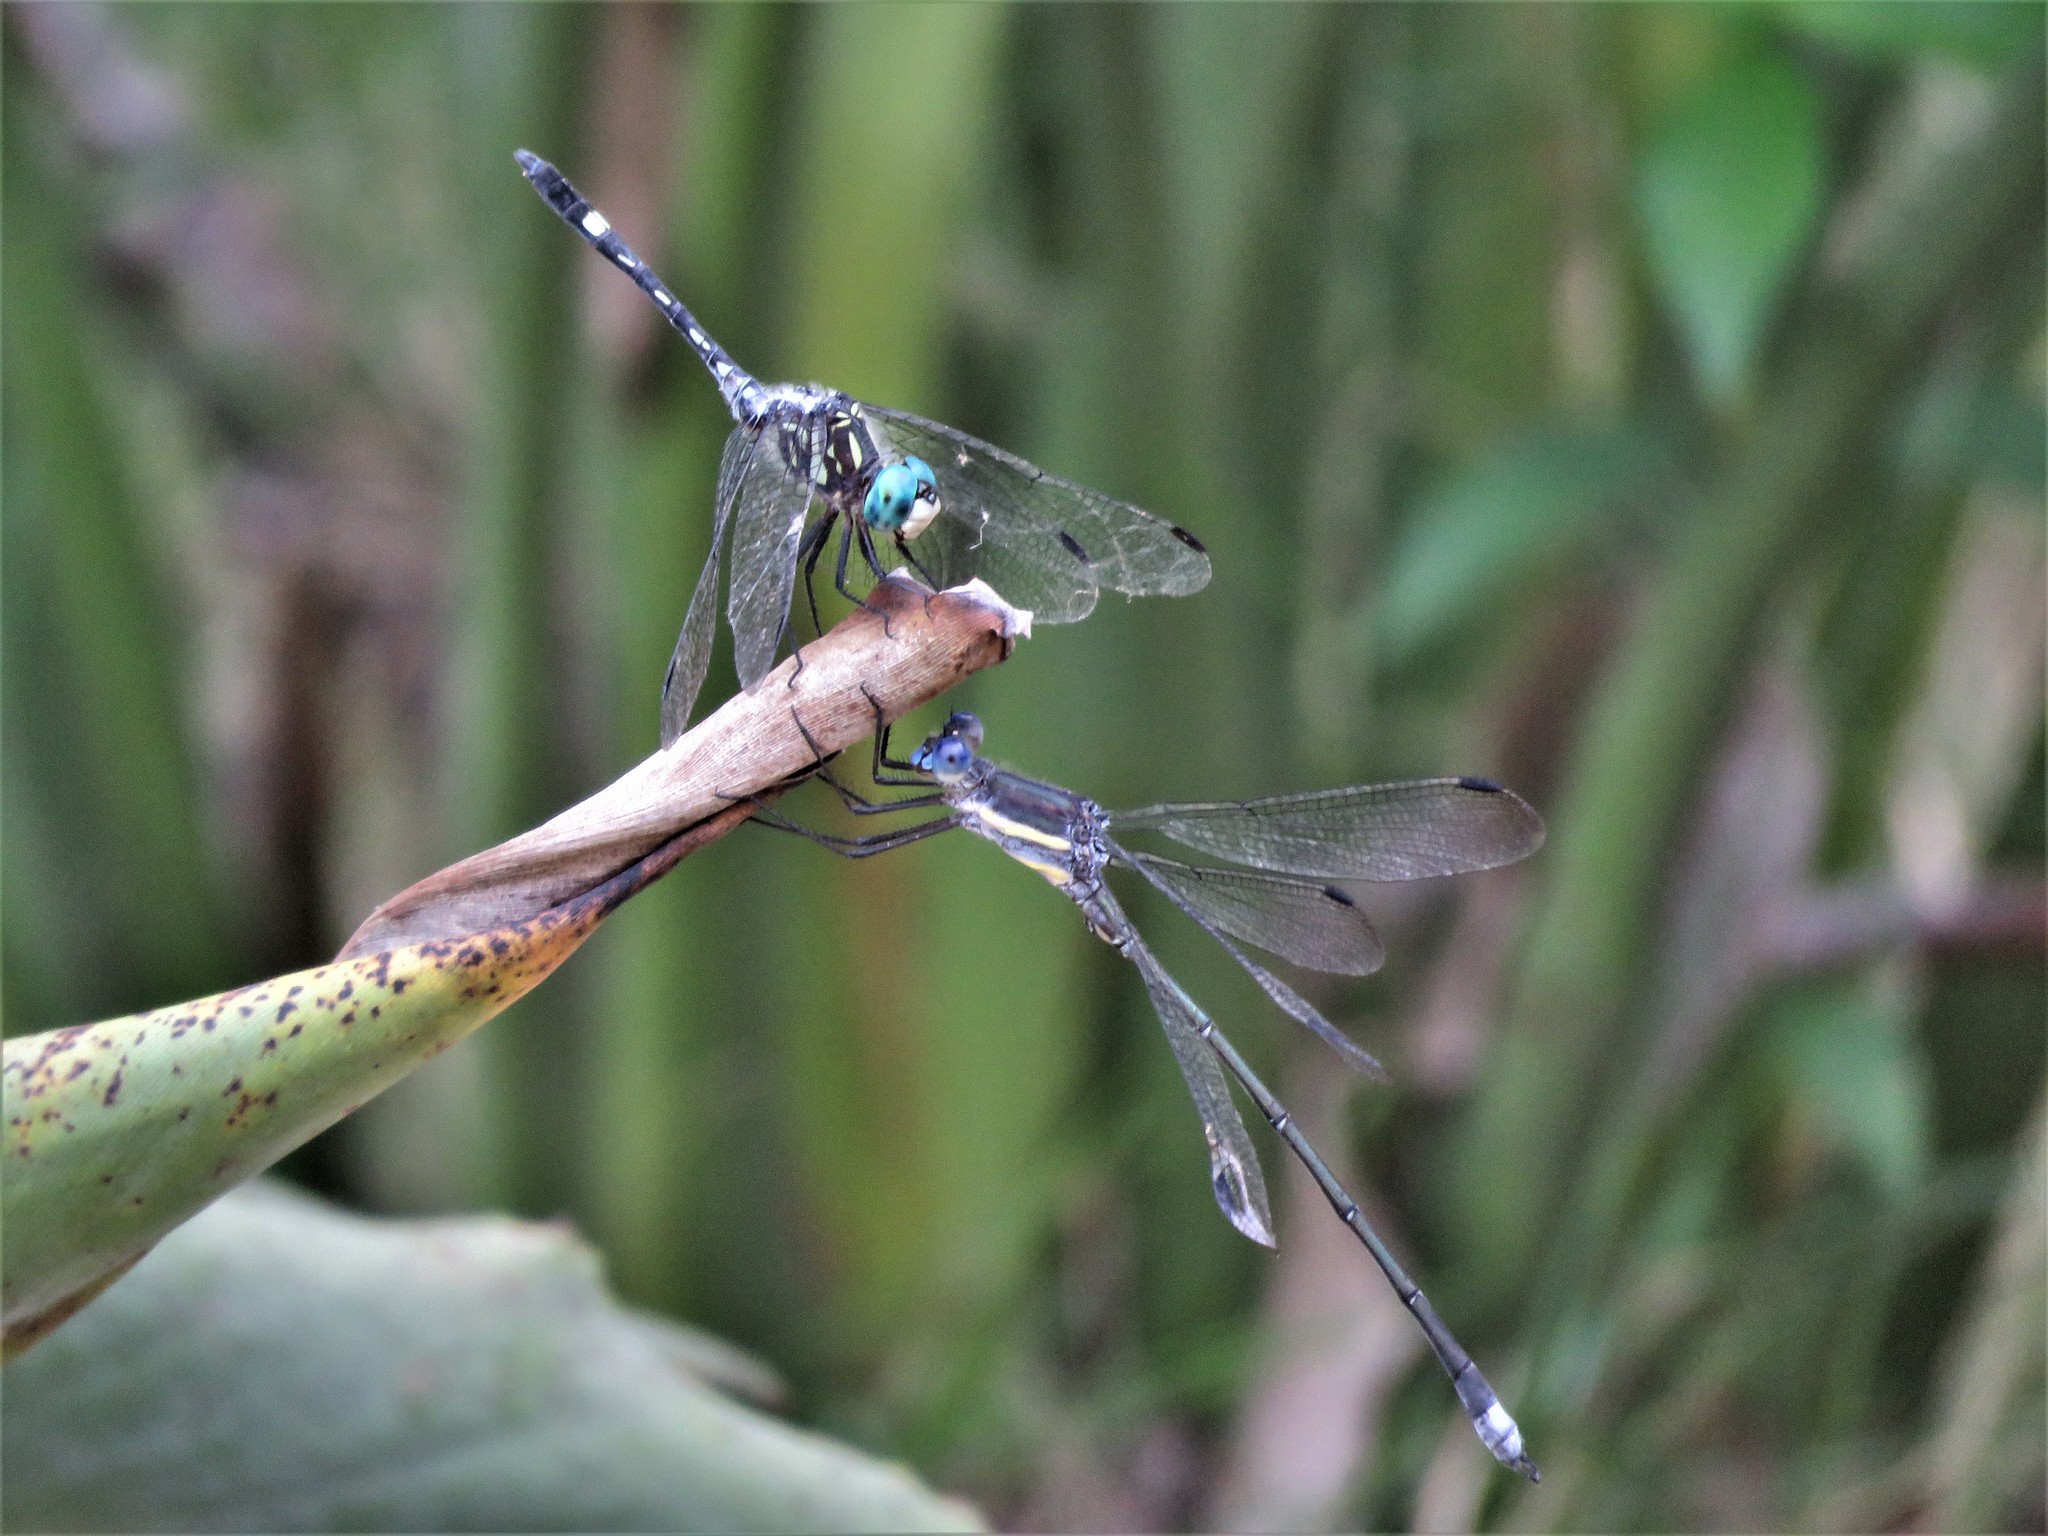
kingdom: Animalia
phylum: Arthropoda
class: Insecta
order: Odonata
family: Lestidae
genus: Archilestes
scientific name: Archilestes grandis
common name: Great spreadwing
